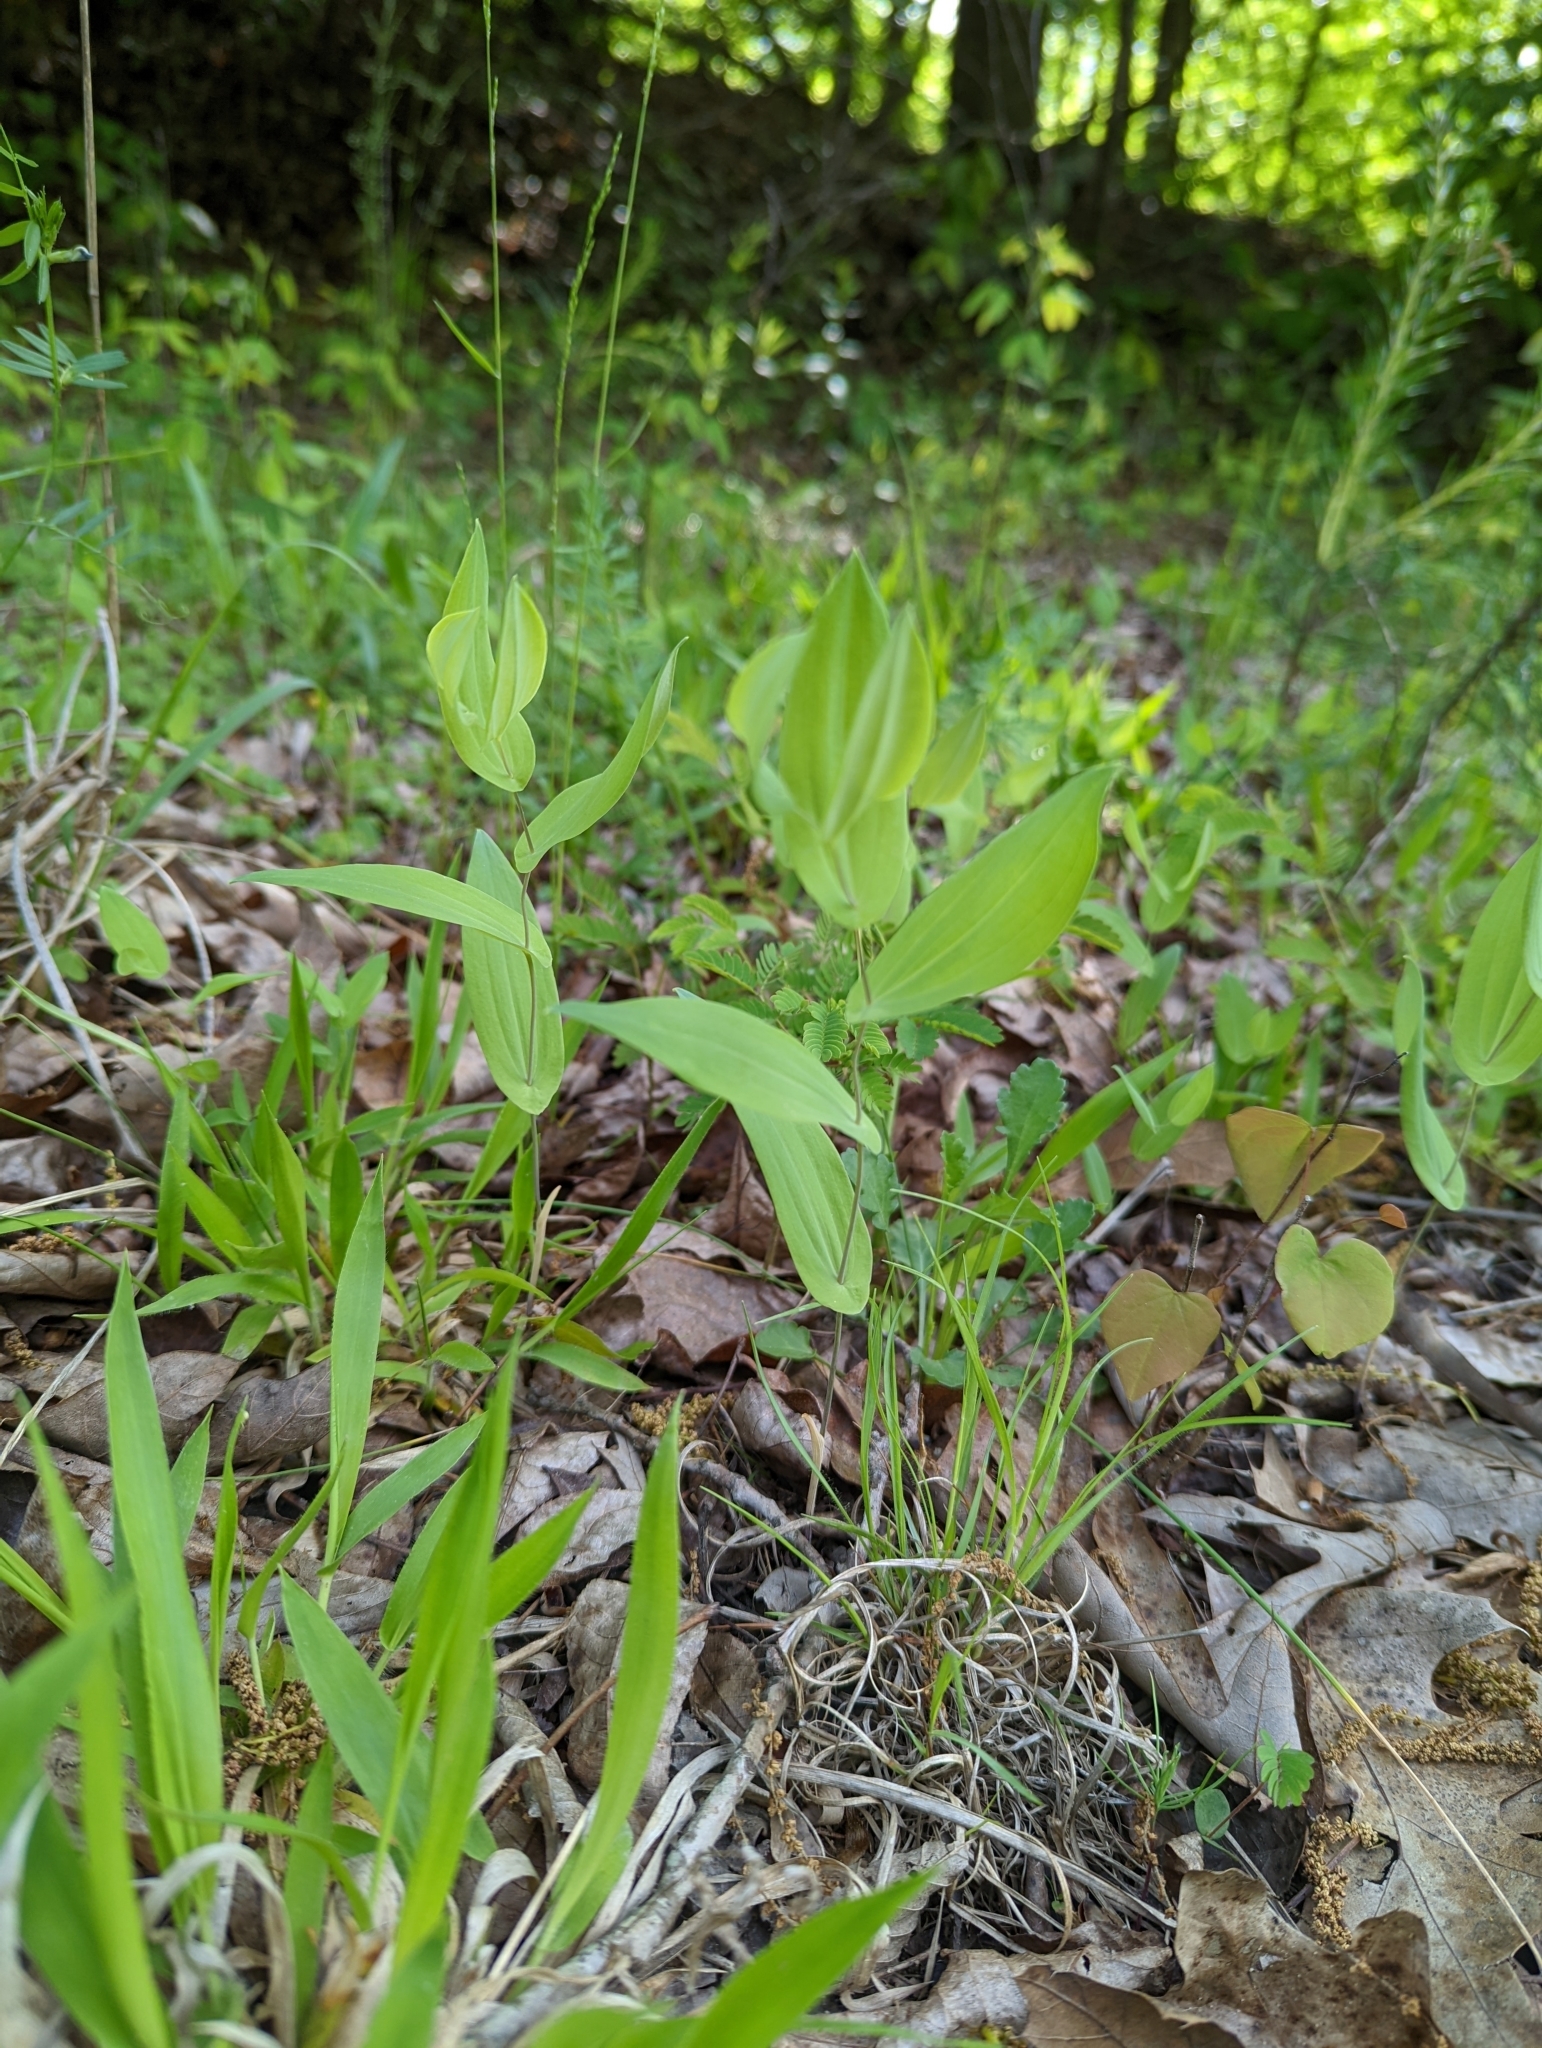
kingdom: Plantae
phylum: Tracheophyta
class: Liliopsida
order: Liliales
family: Colchicaceae
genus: Uvularia
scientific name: Uvularia perfoliata
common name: Perfoliate bellwort
